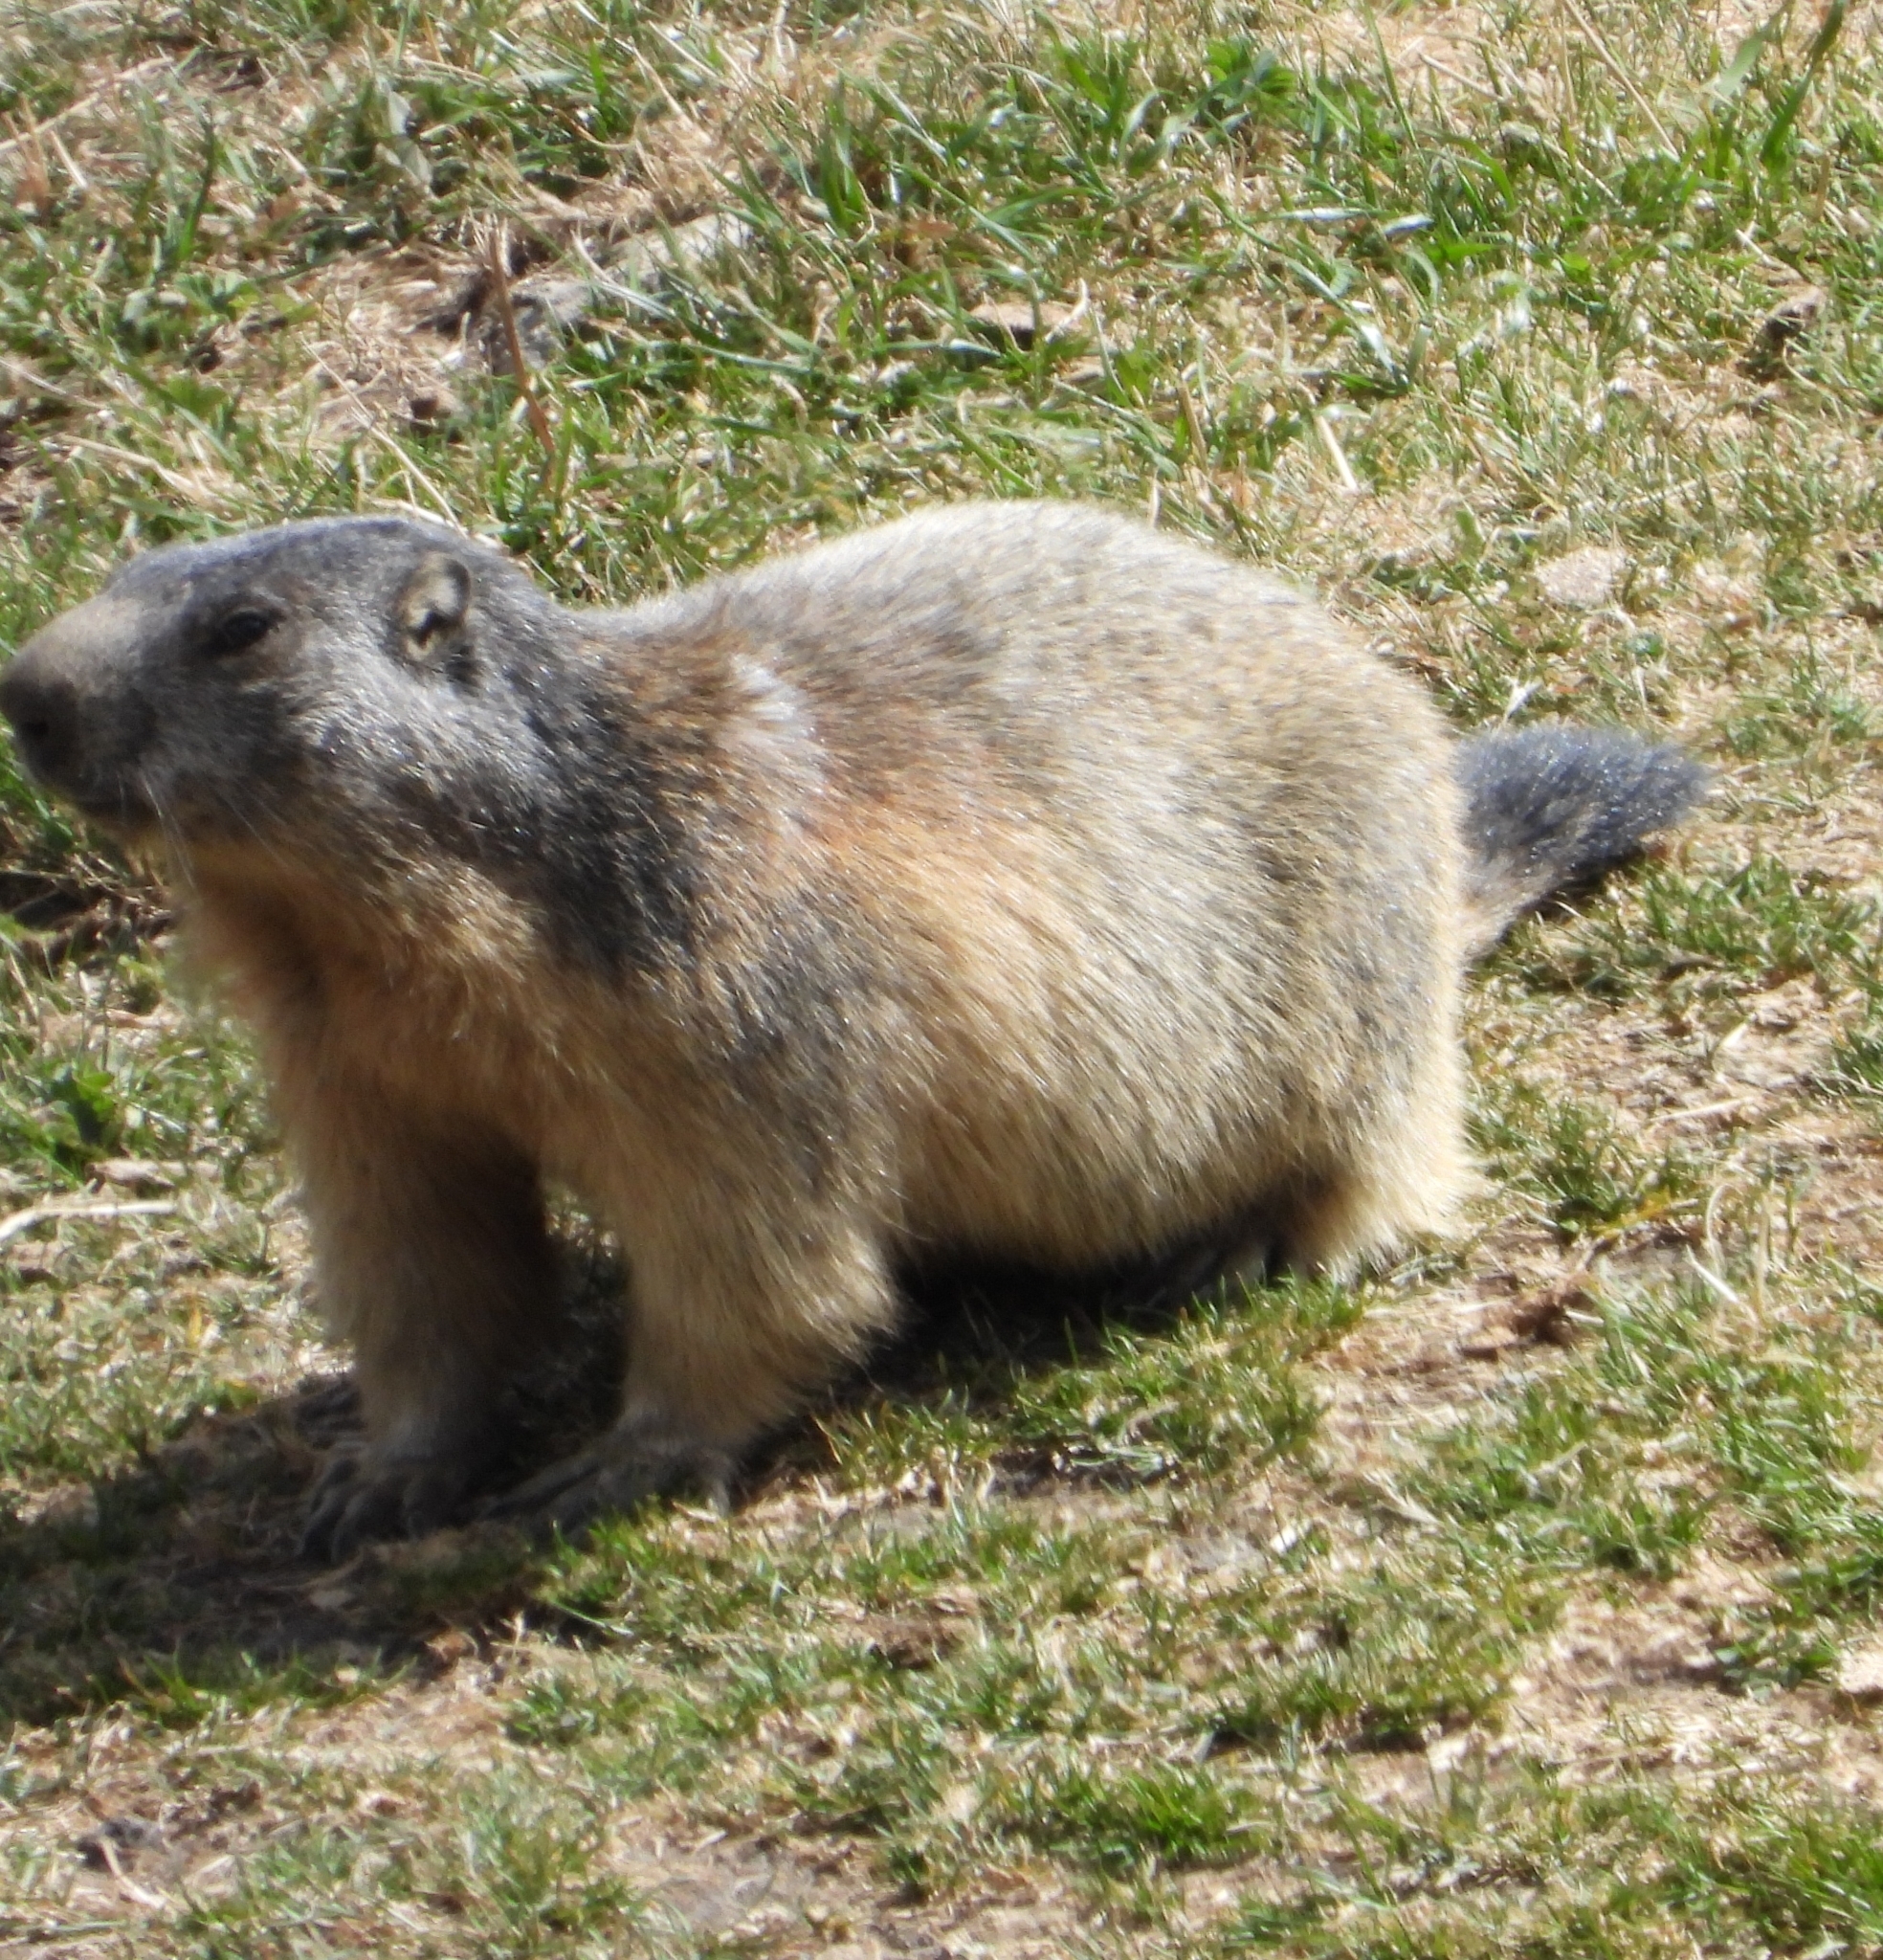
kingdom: Animalia
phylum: Chordata
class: Mammalia
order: Rodentia
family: Sciuridae
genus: Marmota
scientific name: Marmota marmota
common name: Alpine marmot
